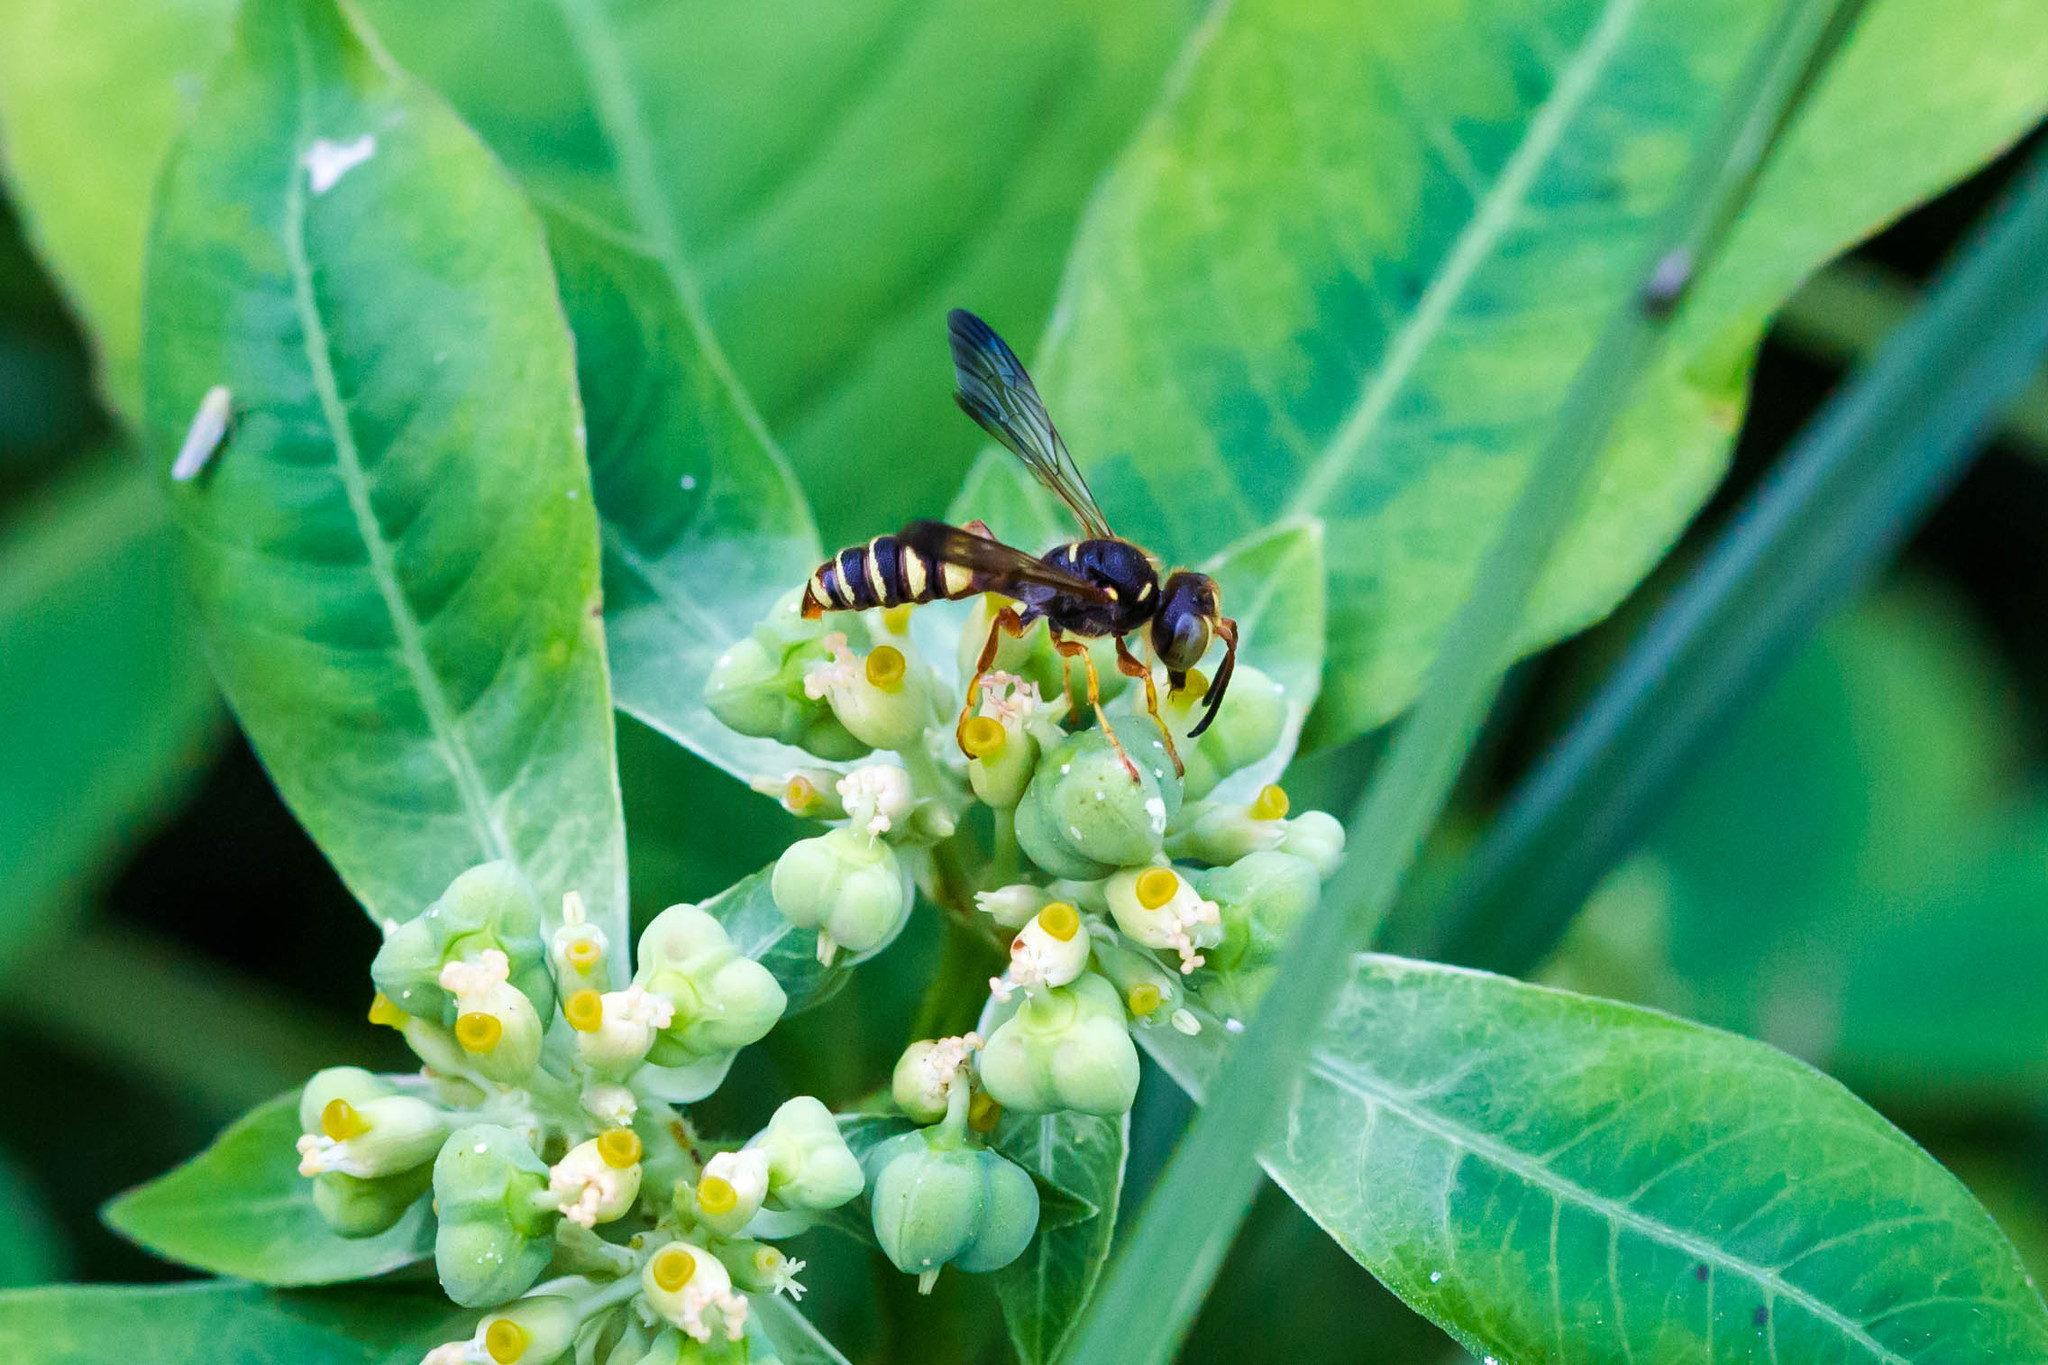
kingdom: Animalia
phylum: Arthropoda
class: Insecta
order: Hymenoptera
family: Crabronidae
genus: Cerceris
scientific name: Cerceris bicornuta
